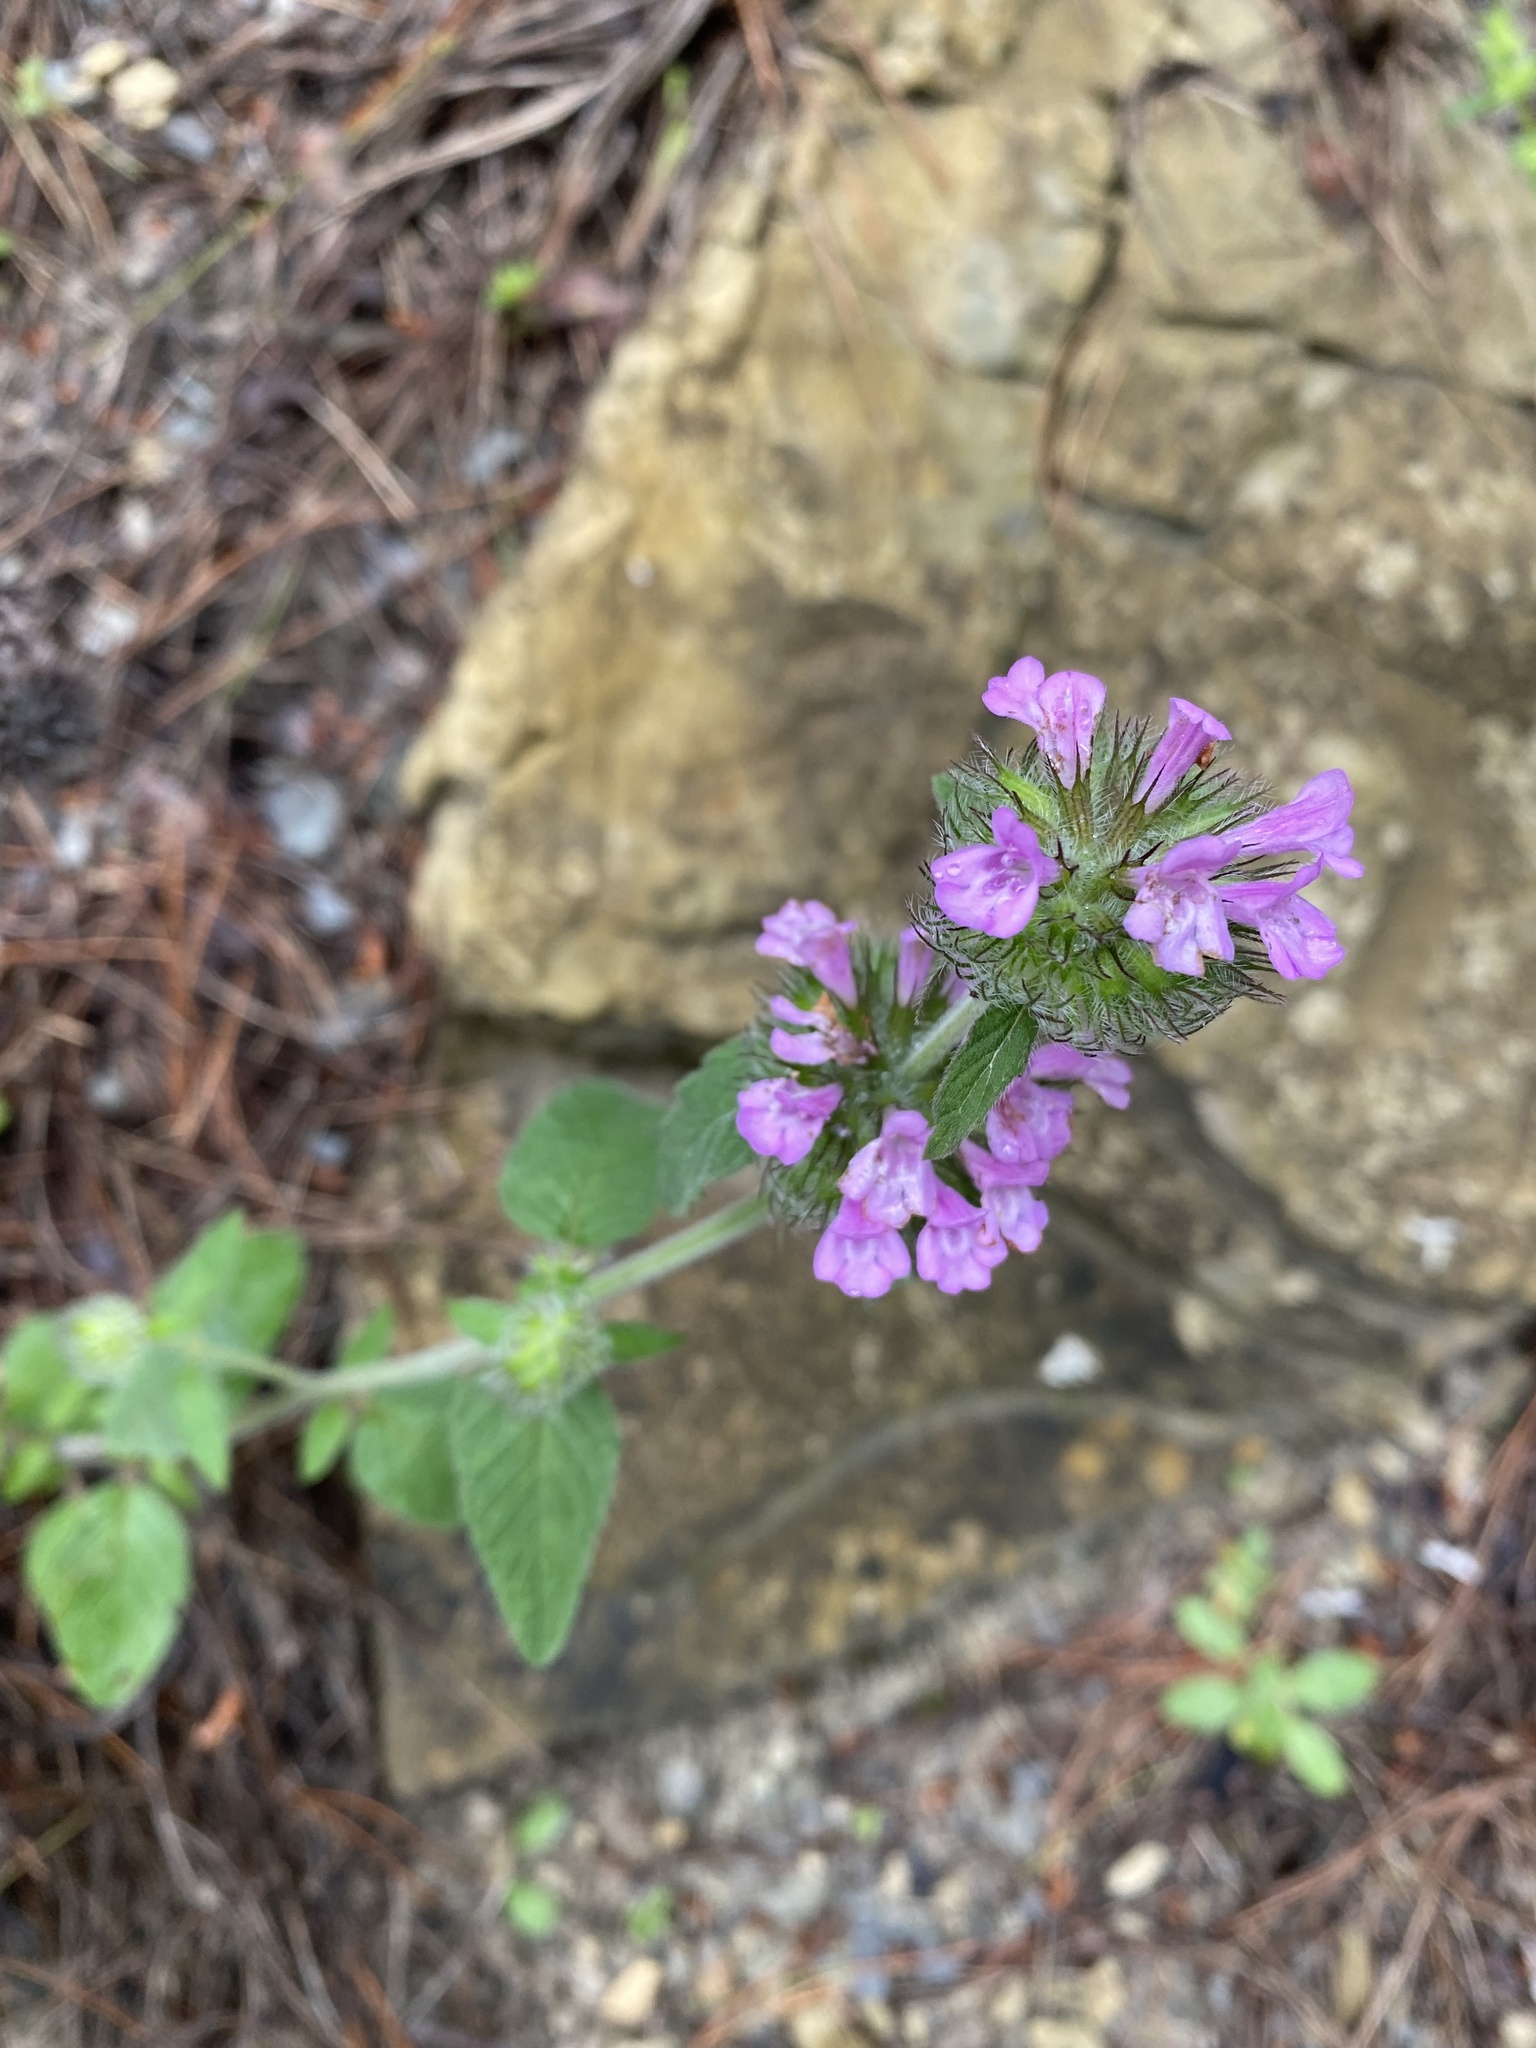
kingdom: Plantae
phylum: Tracheophyta
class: Magnoliopsida
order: Lamiales
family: Lamiaceae
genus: Clinopodium
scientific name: Clinopodium vulgare
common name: Wild basil
